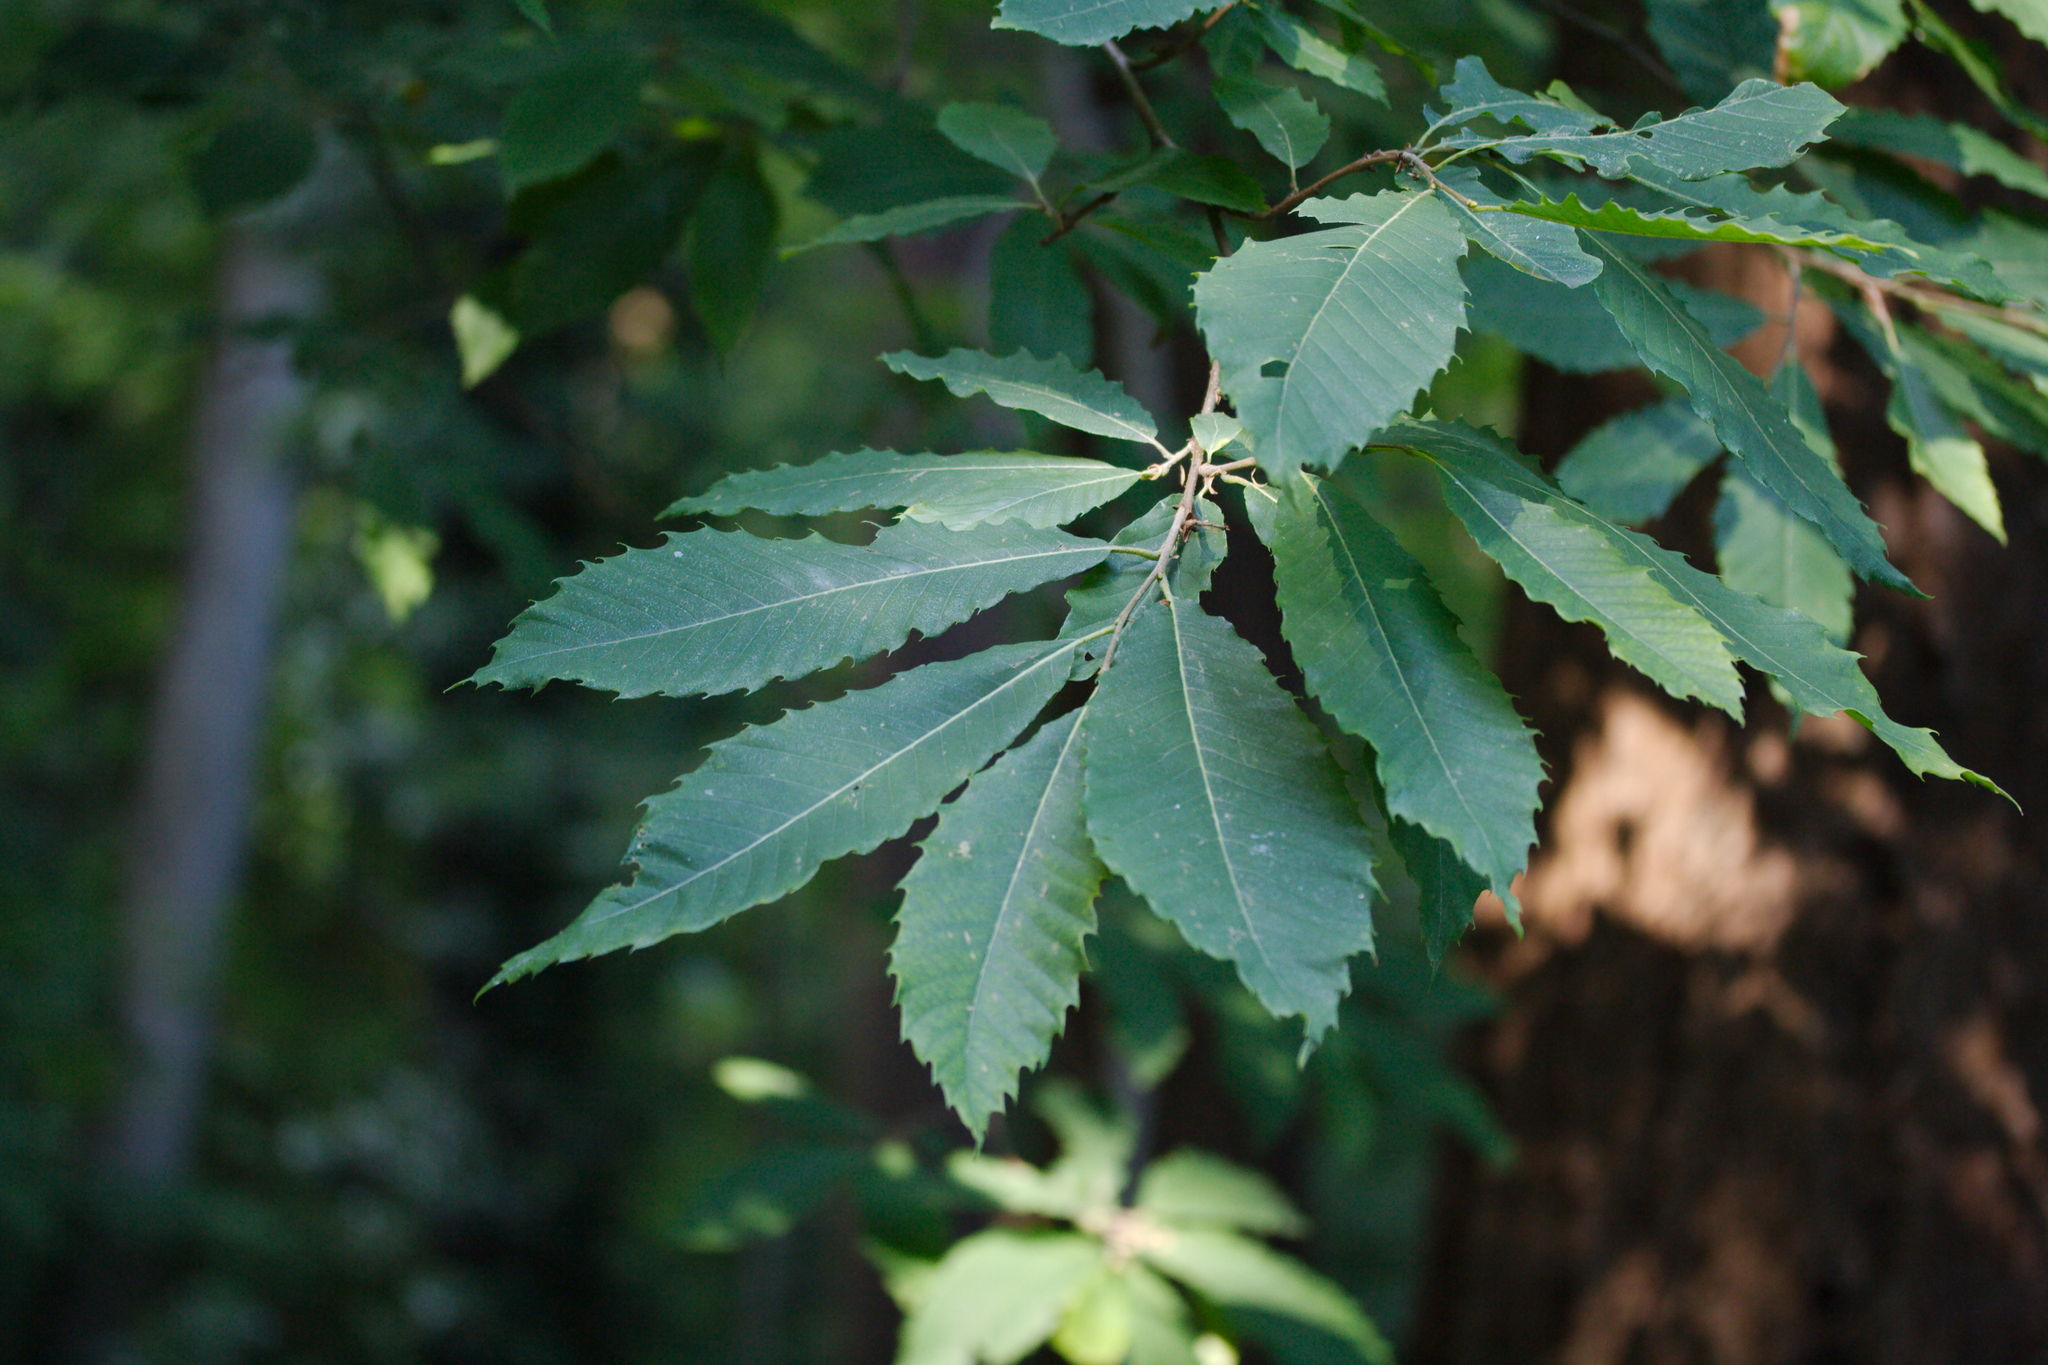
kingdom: Plantae
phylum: Tracheophyta
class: Magnoliopsida
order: Fagales
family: Fagaceae
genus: Castanea
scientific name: Castanea sativa
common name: Sweet chestnut
